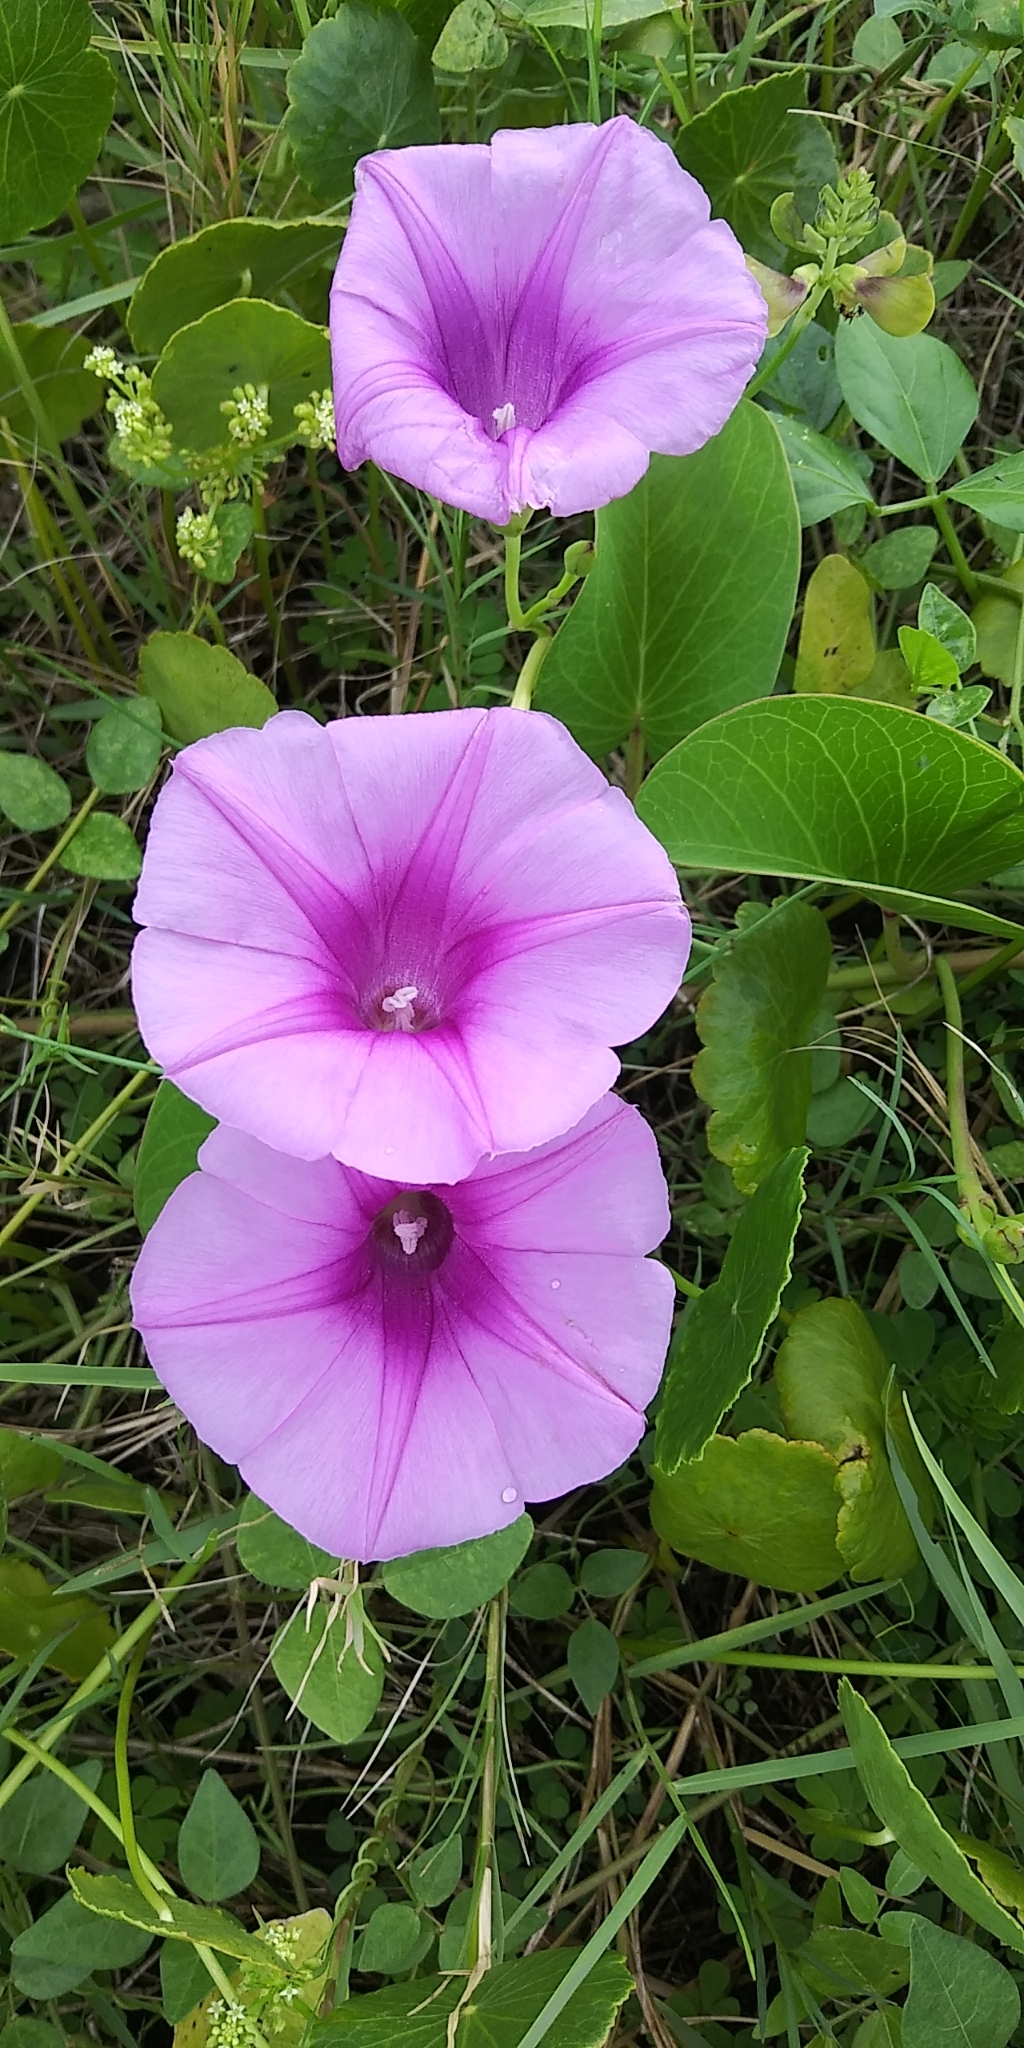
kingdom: Plantae
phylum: Tracheophyta
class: Magnoliopsida
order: Solanales
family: Convolvulaceae
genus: Ipomoea
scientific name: Ipomoea pes-caprae
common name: Beach morning glory
